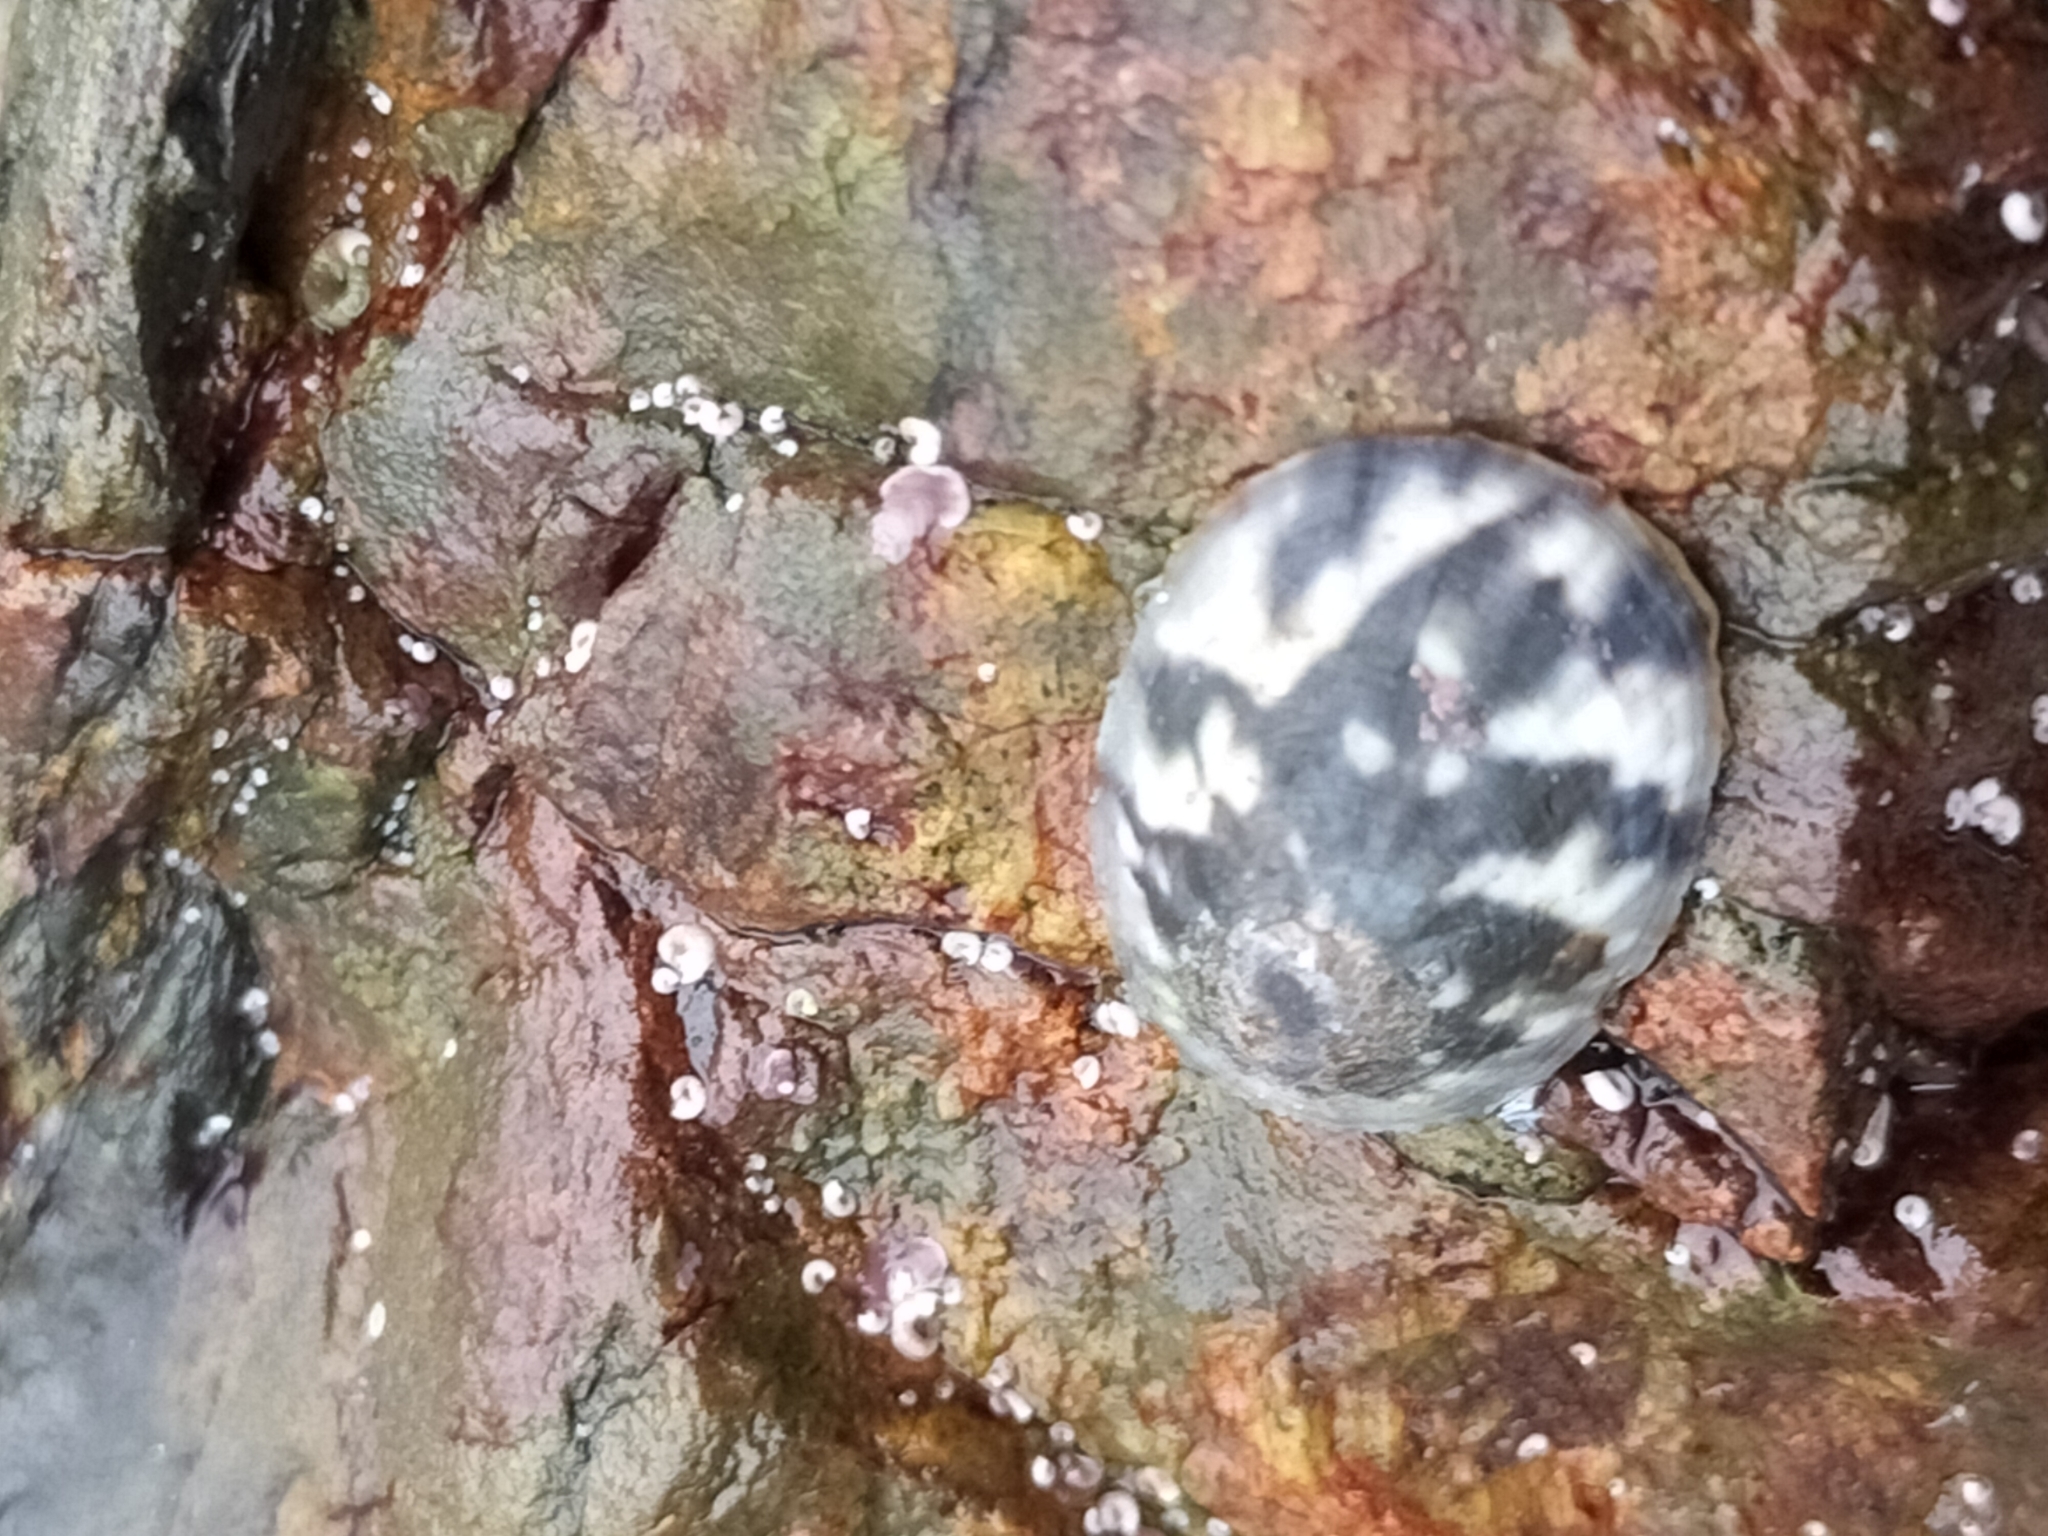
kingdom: Animalia
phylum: Mollusca
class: Gastropoda
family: Nacellidae
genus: Cellana
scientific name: Cellana radians
